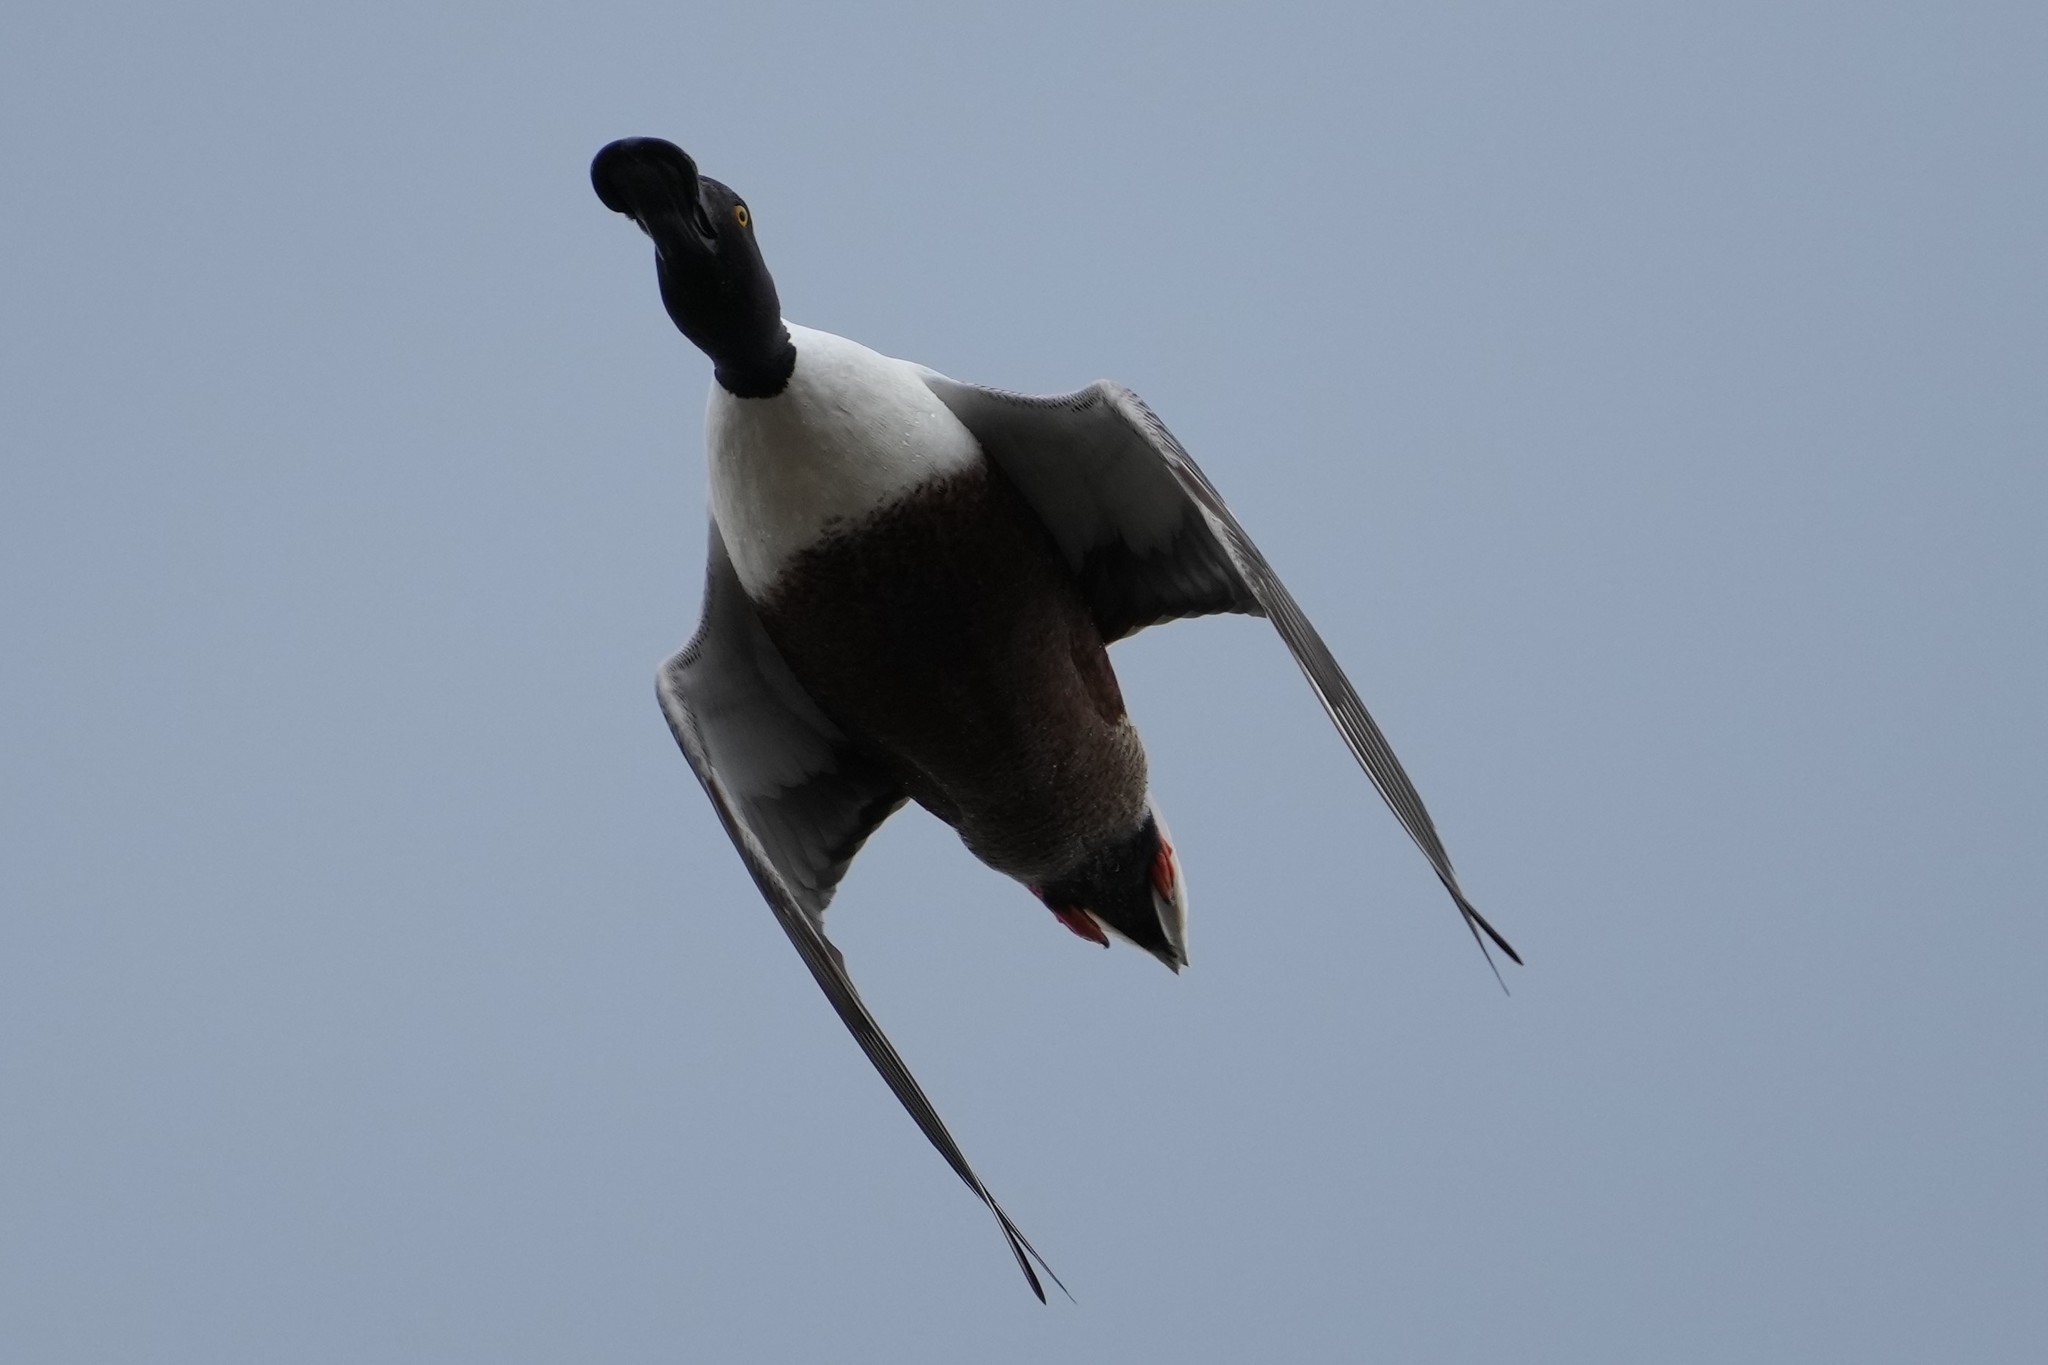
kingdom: Animalia
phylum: Chordata
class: Aves
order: Anseriformes
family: Anatidae
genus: Spatula
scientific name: Spatula clypeata
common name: Northern shoveler
